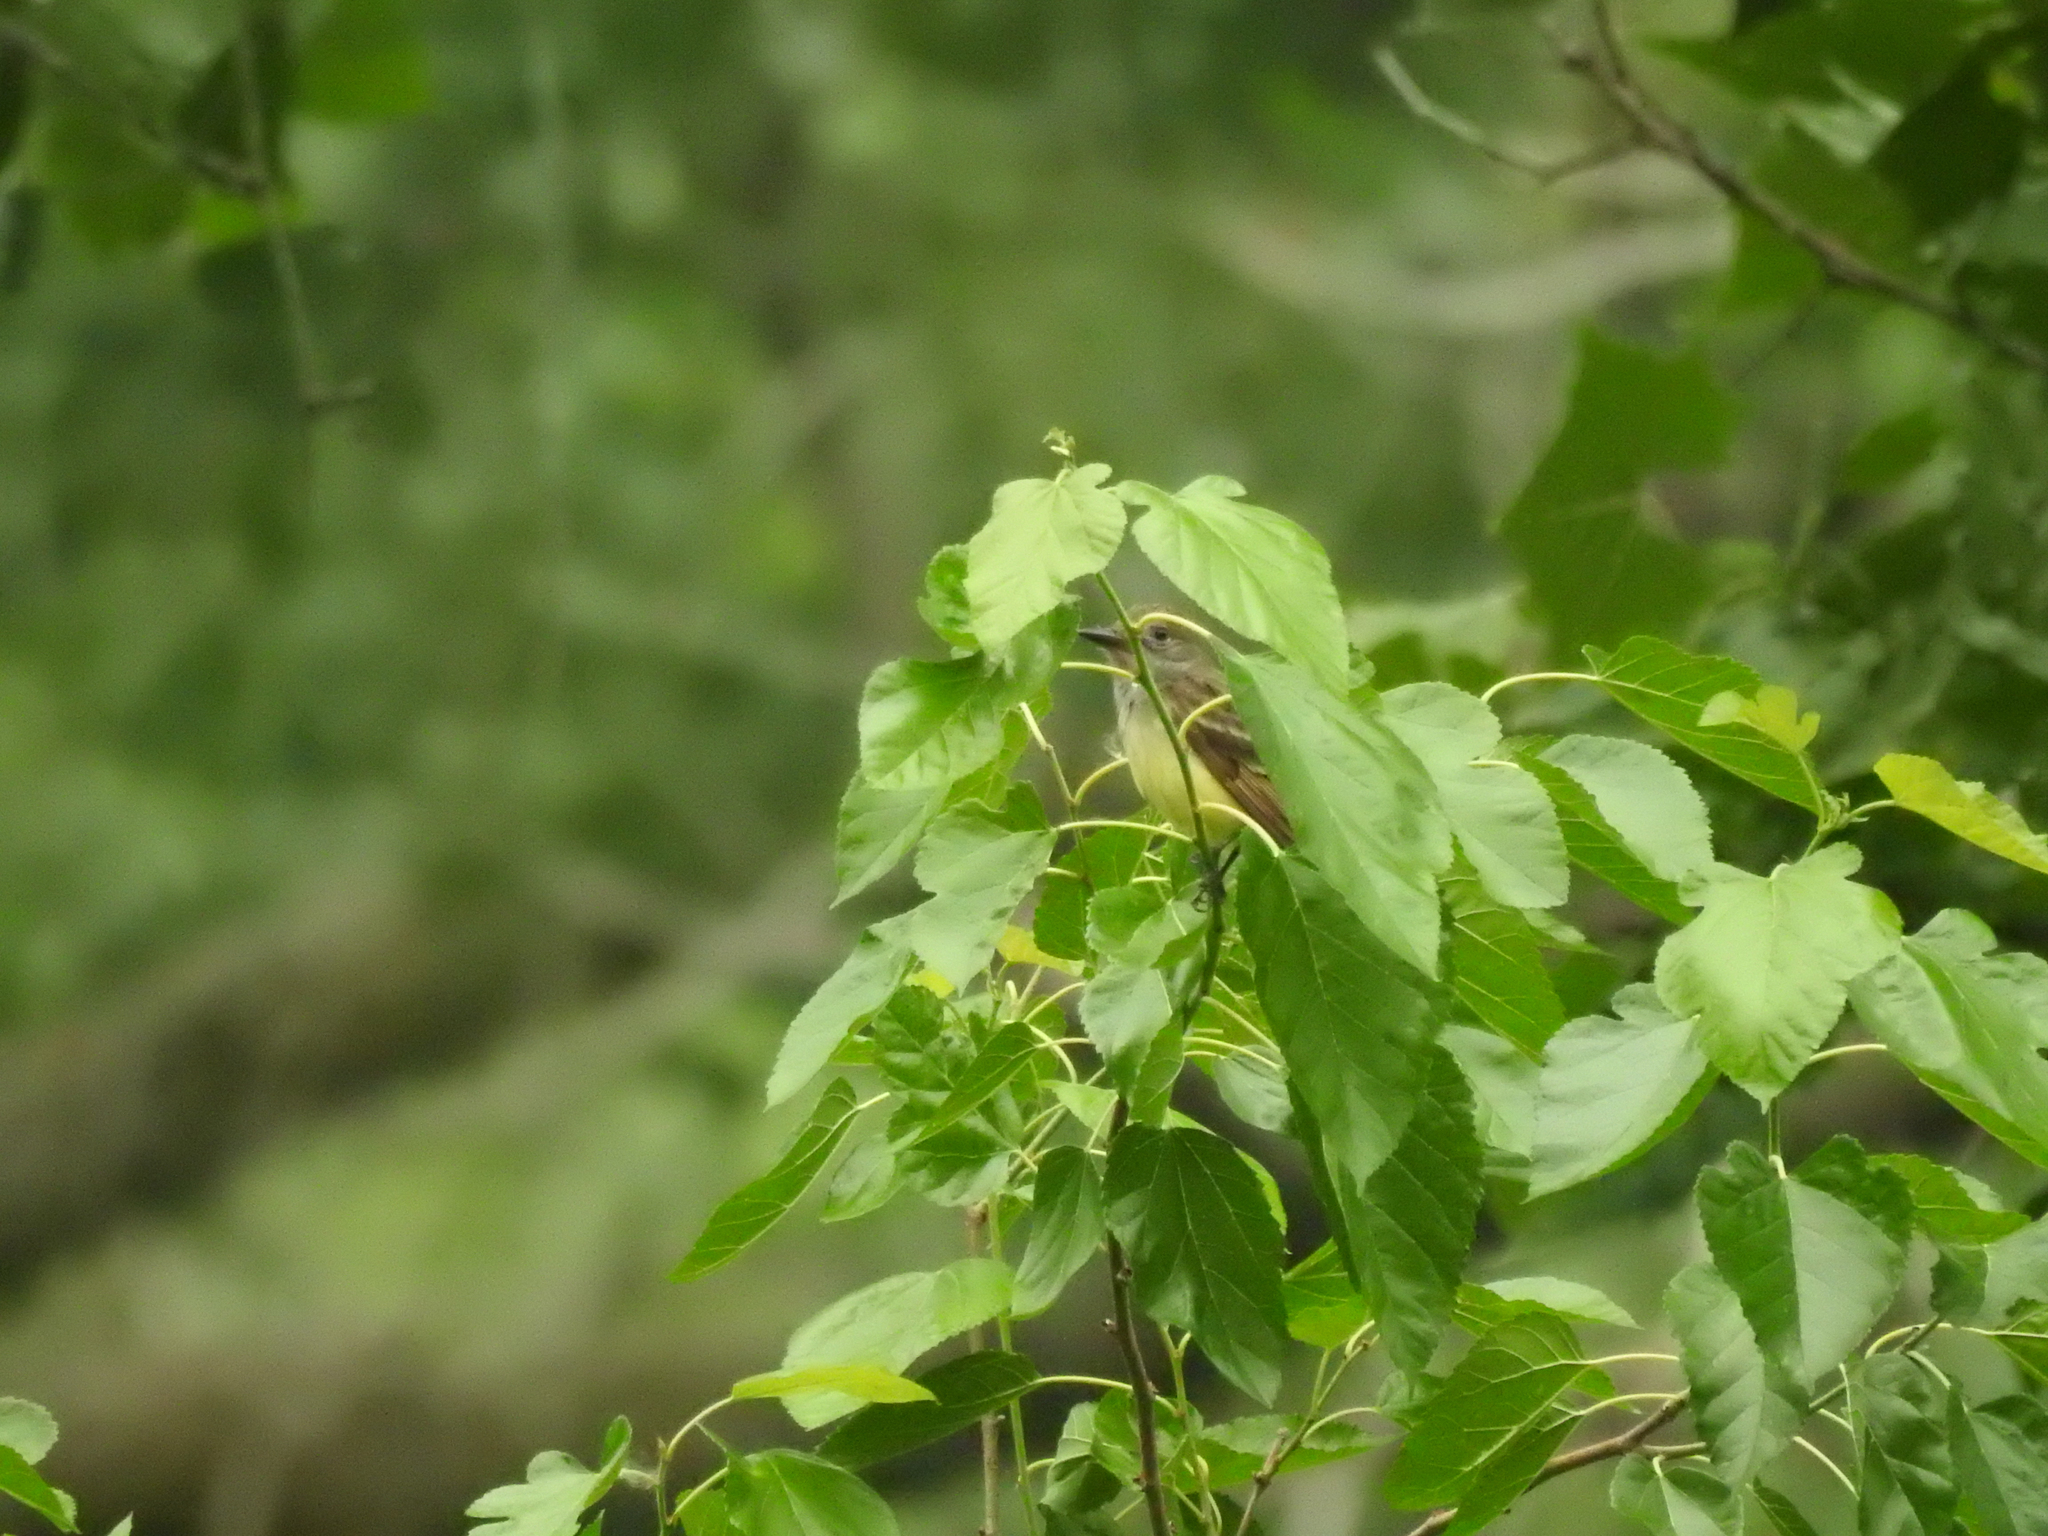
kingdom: Animalia
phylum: Chordata
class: Aves
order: Passeriformes
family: Tyrannidae
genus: Myiarchus
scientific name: Myiarchus crinitus
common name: Great crested flycatcher
